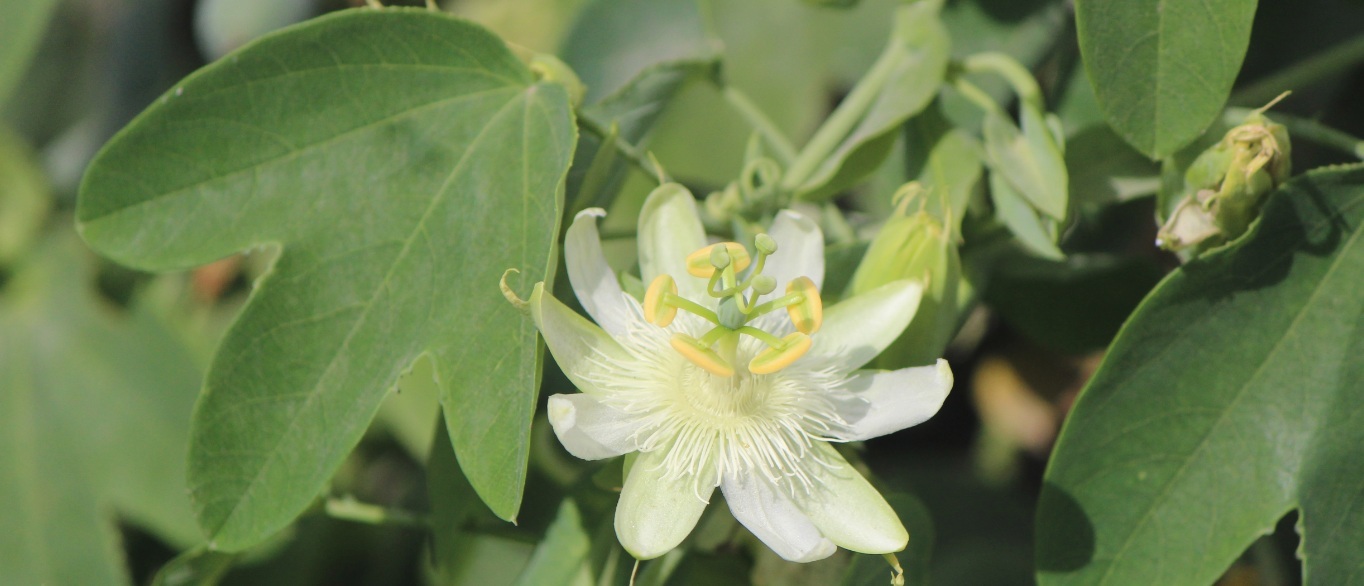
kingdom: Plantae
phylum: Tracheophyta
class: Magnoliopsida
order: Malpighiales
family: Passifloraceae
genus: Passiflora
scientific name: Passiflora subpeltata
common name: White passionflower
